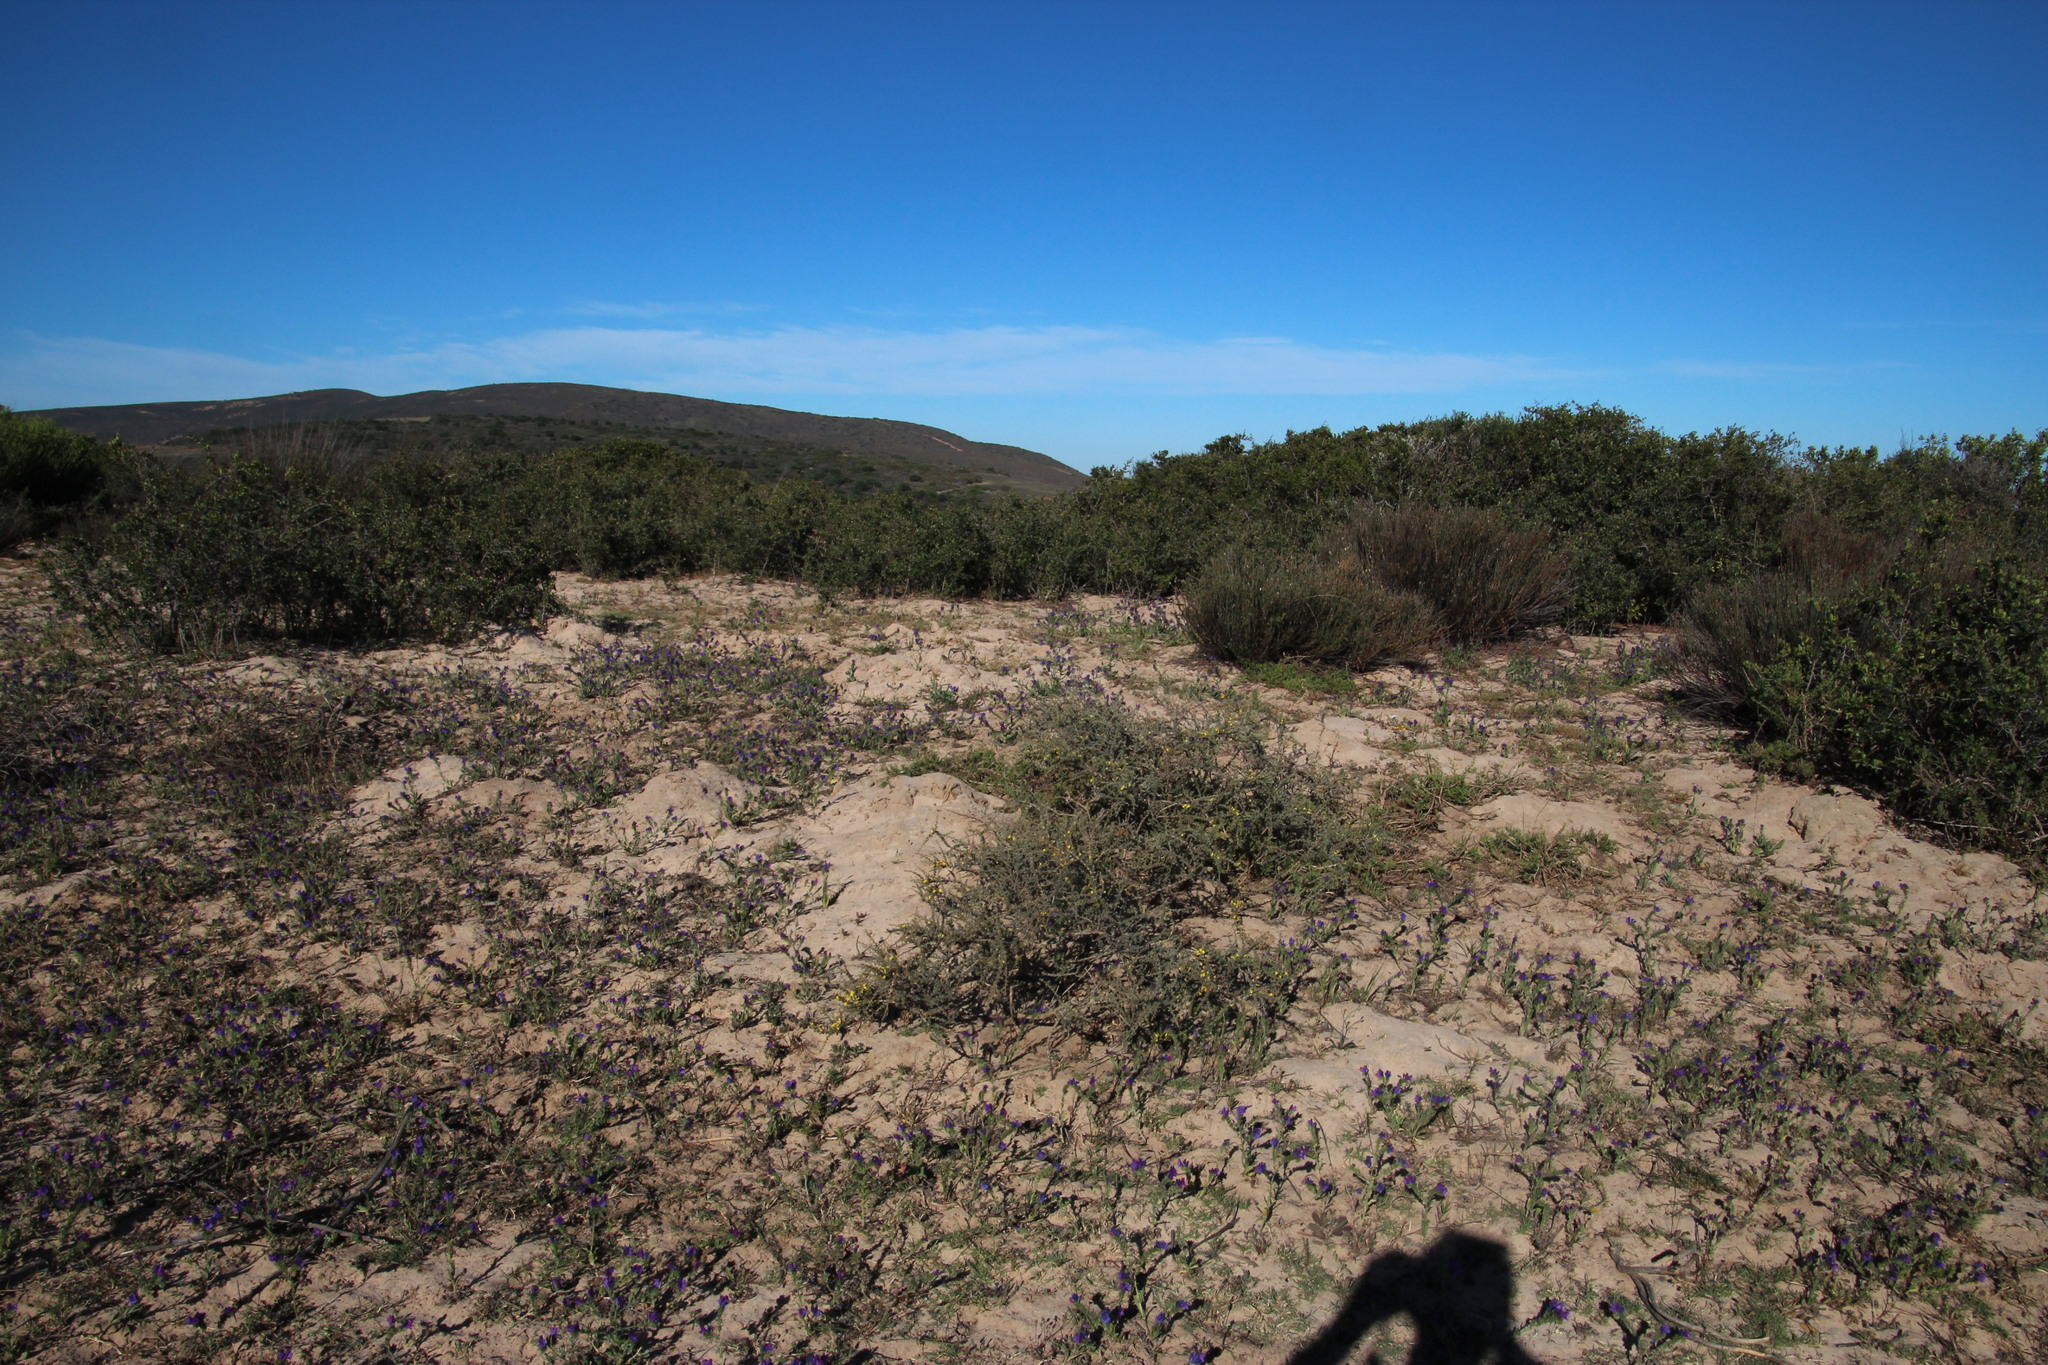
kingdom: Plantae
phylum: Tracheophyta
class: Magnoliopsida
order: Fabales
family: Fabaceae
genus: Aspalathus
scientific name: Aspalathus acanthophylla
